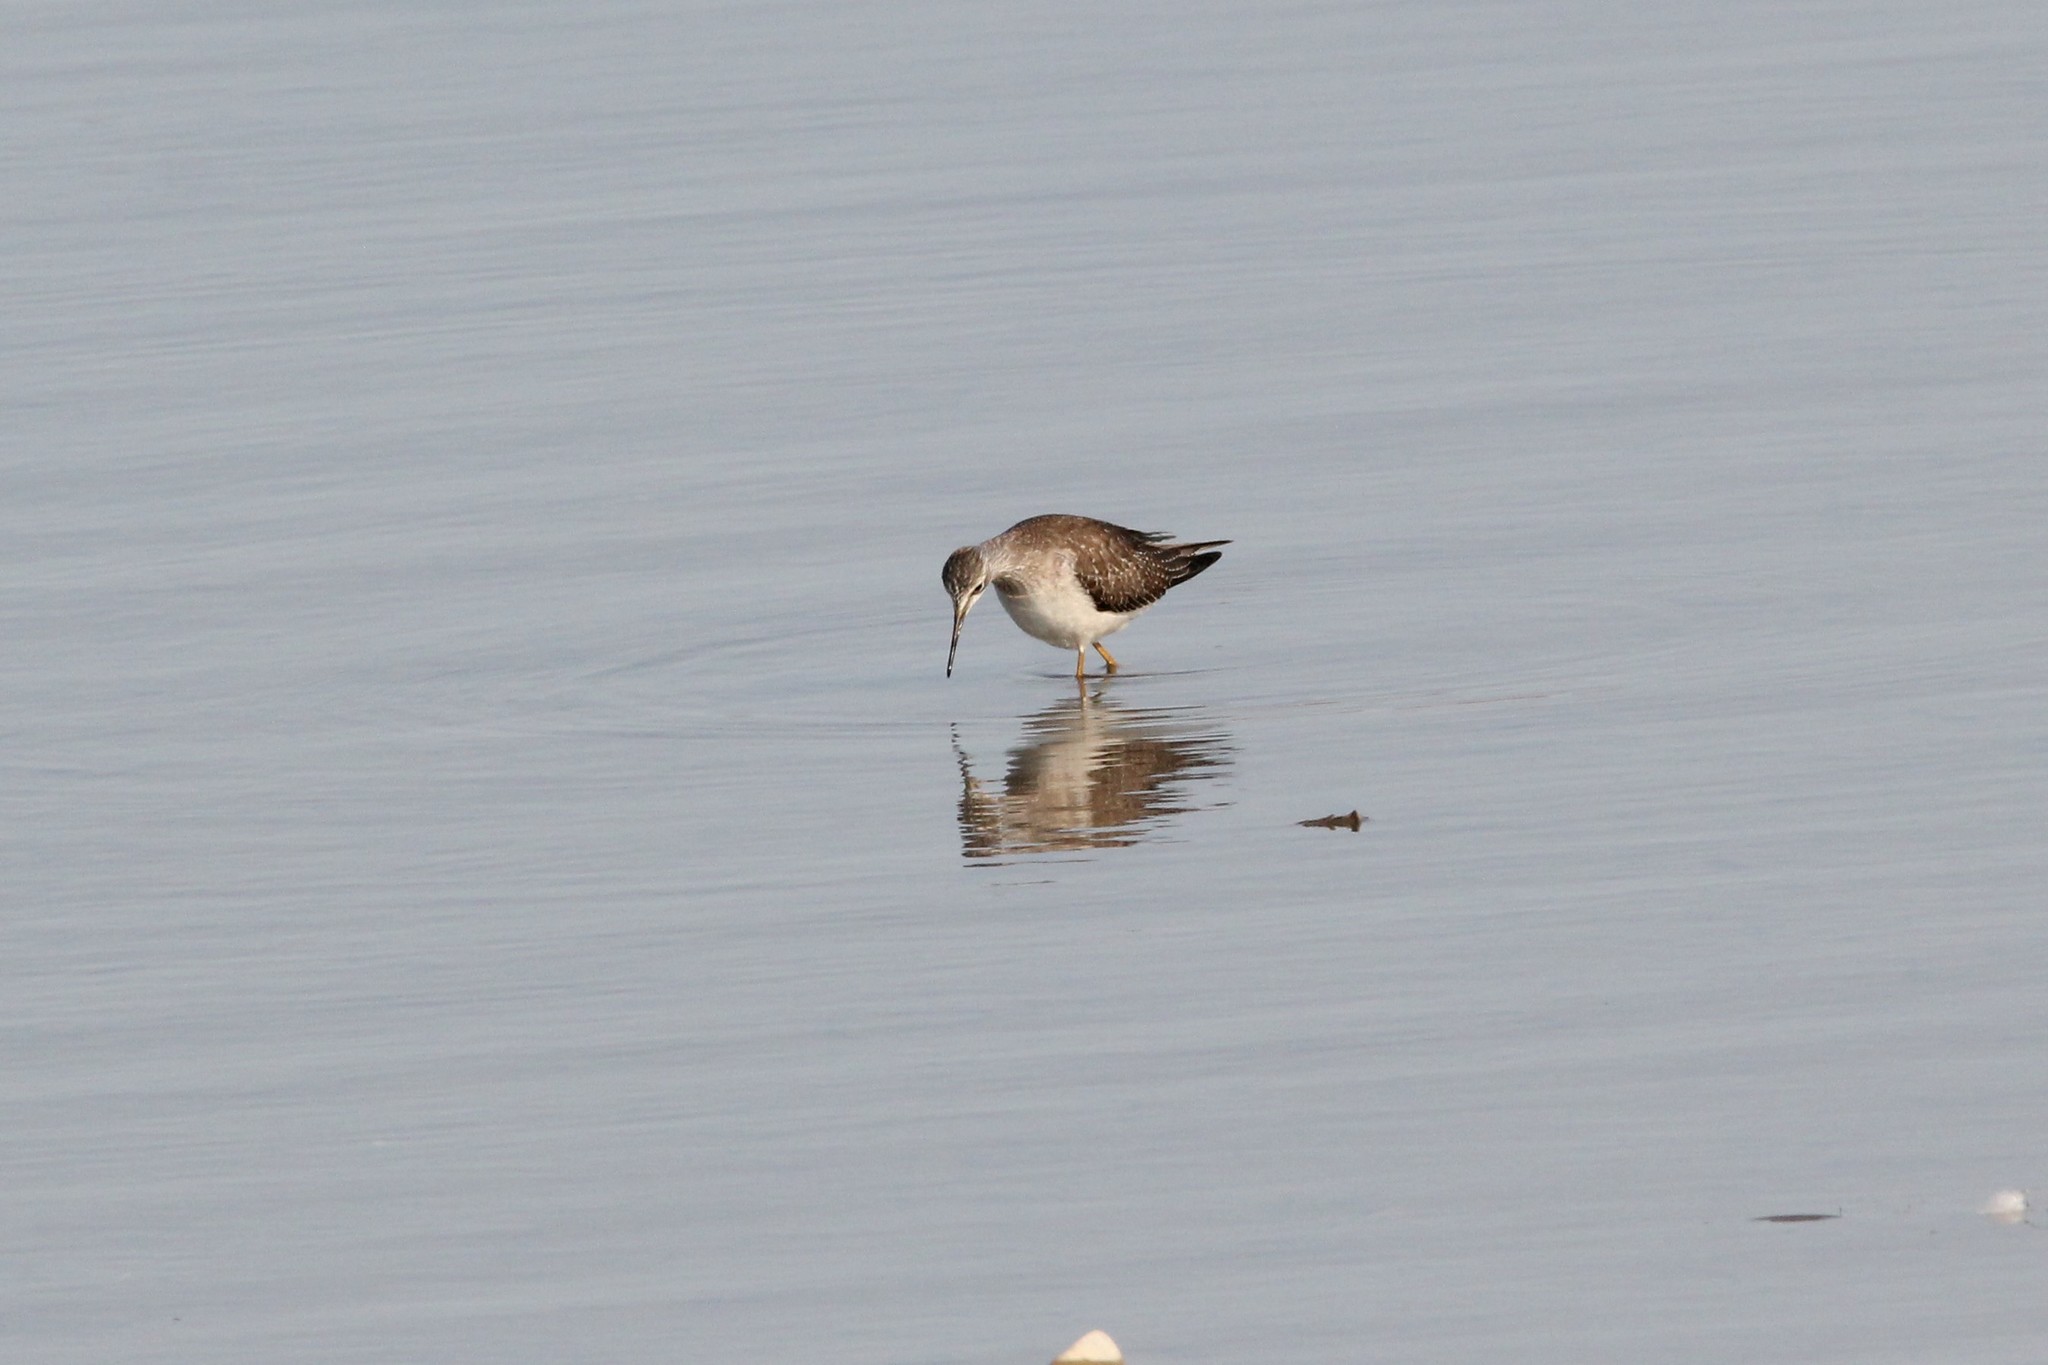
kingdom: Animalia
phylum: Chordata
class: Aves
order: Charadriiformes
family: Scolopacidae
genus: Tringa
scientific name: Tringa flavipes
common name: Lesser yellowlegs
